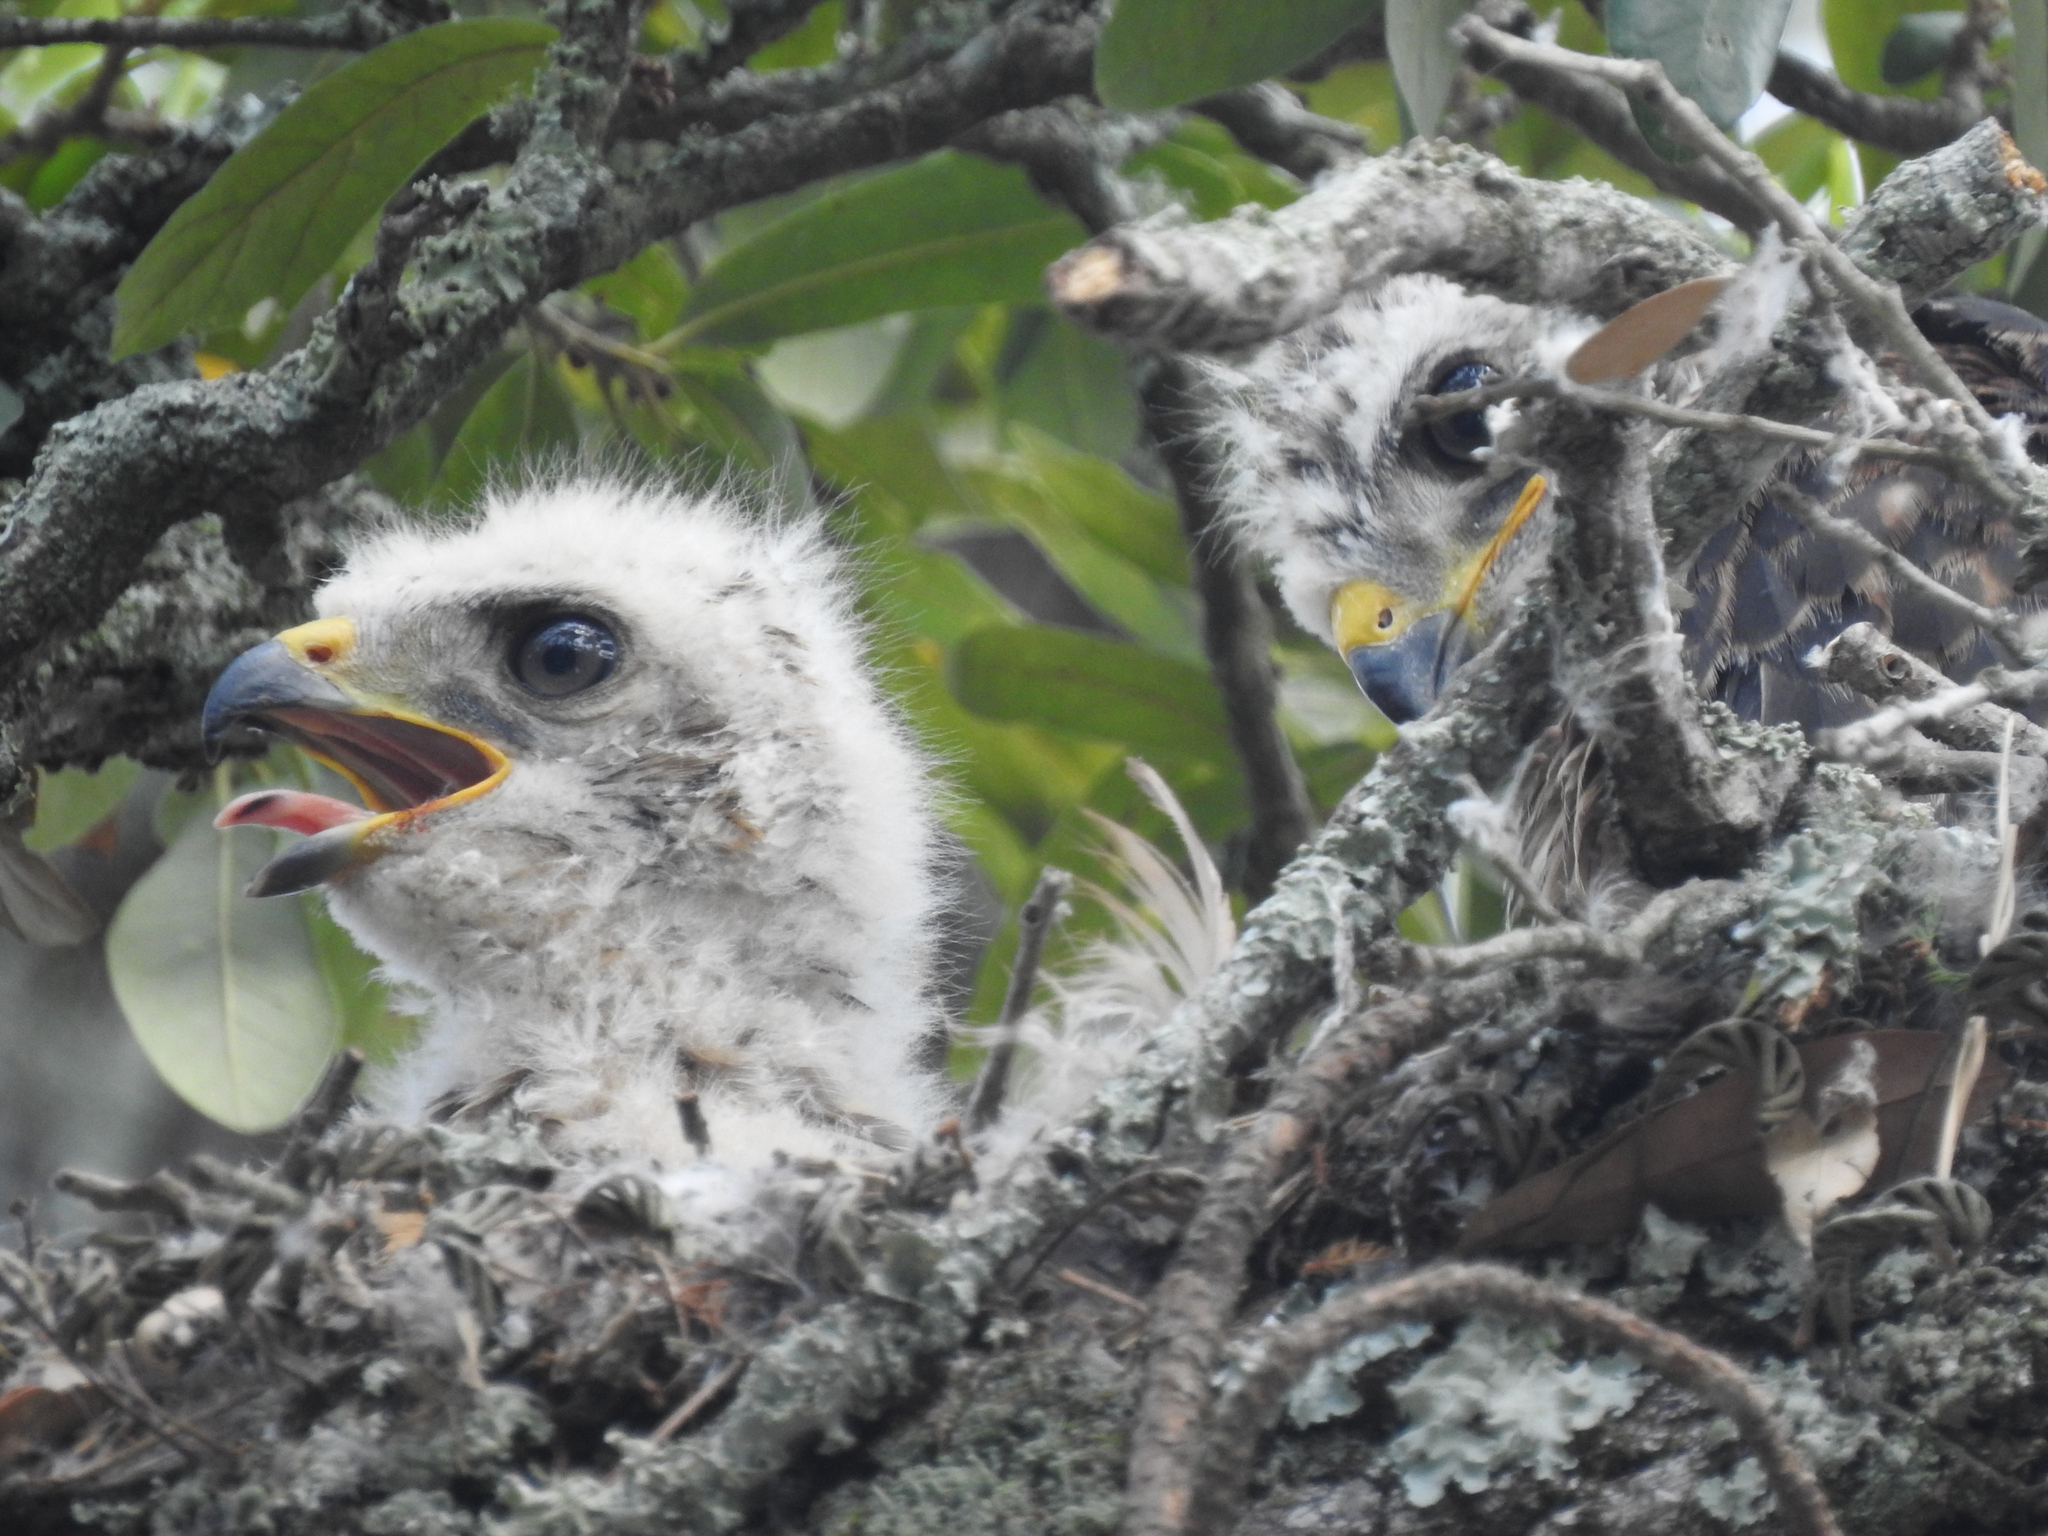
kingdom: Animalia
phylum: Chordata
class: Aves
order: Accipitriformes
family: Accipitridae
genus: Buteo
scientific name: Buteo lineatus
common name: Red-shouldered hawk
